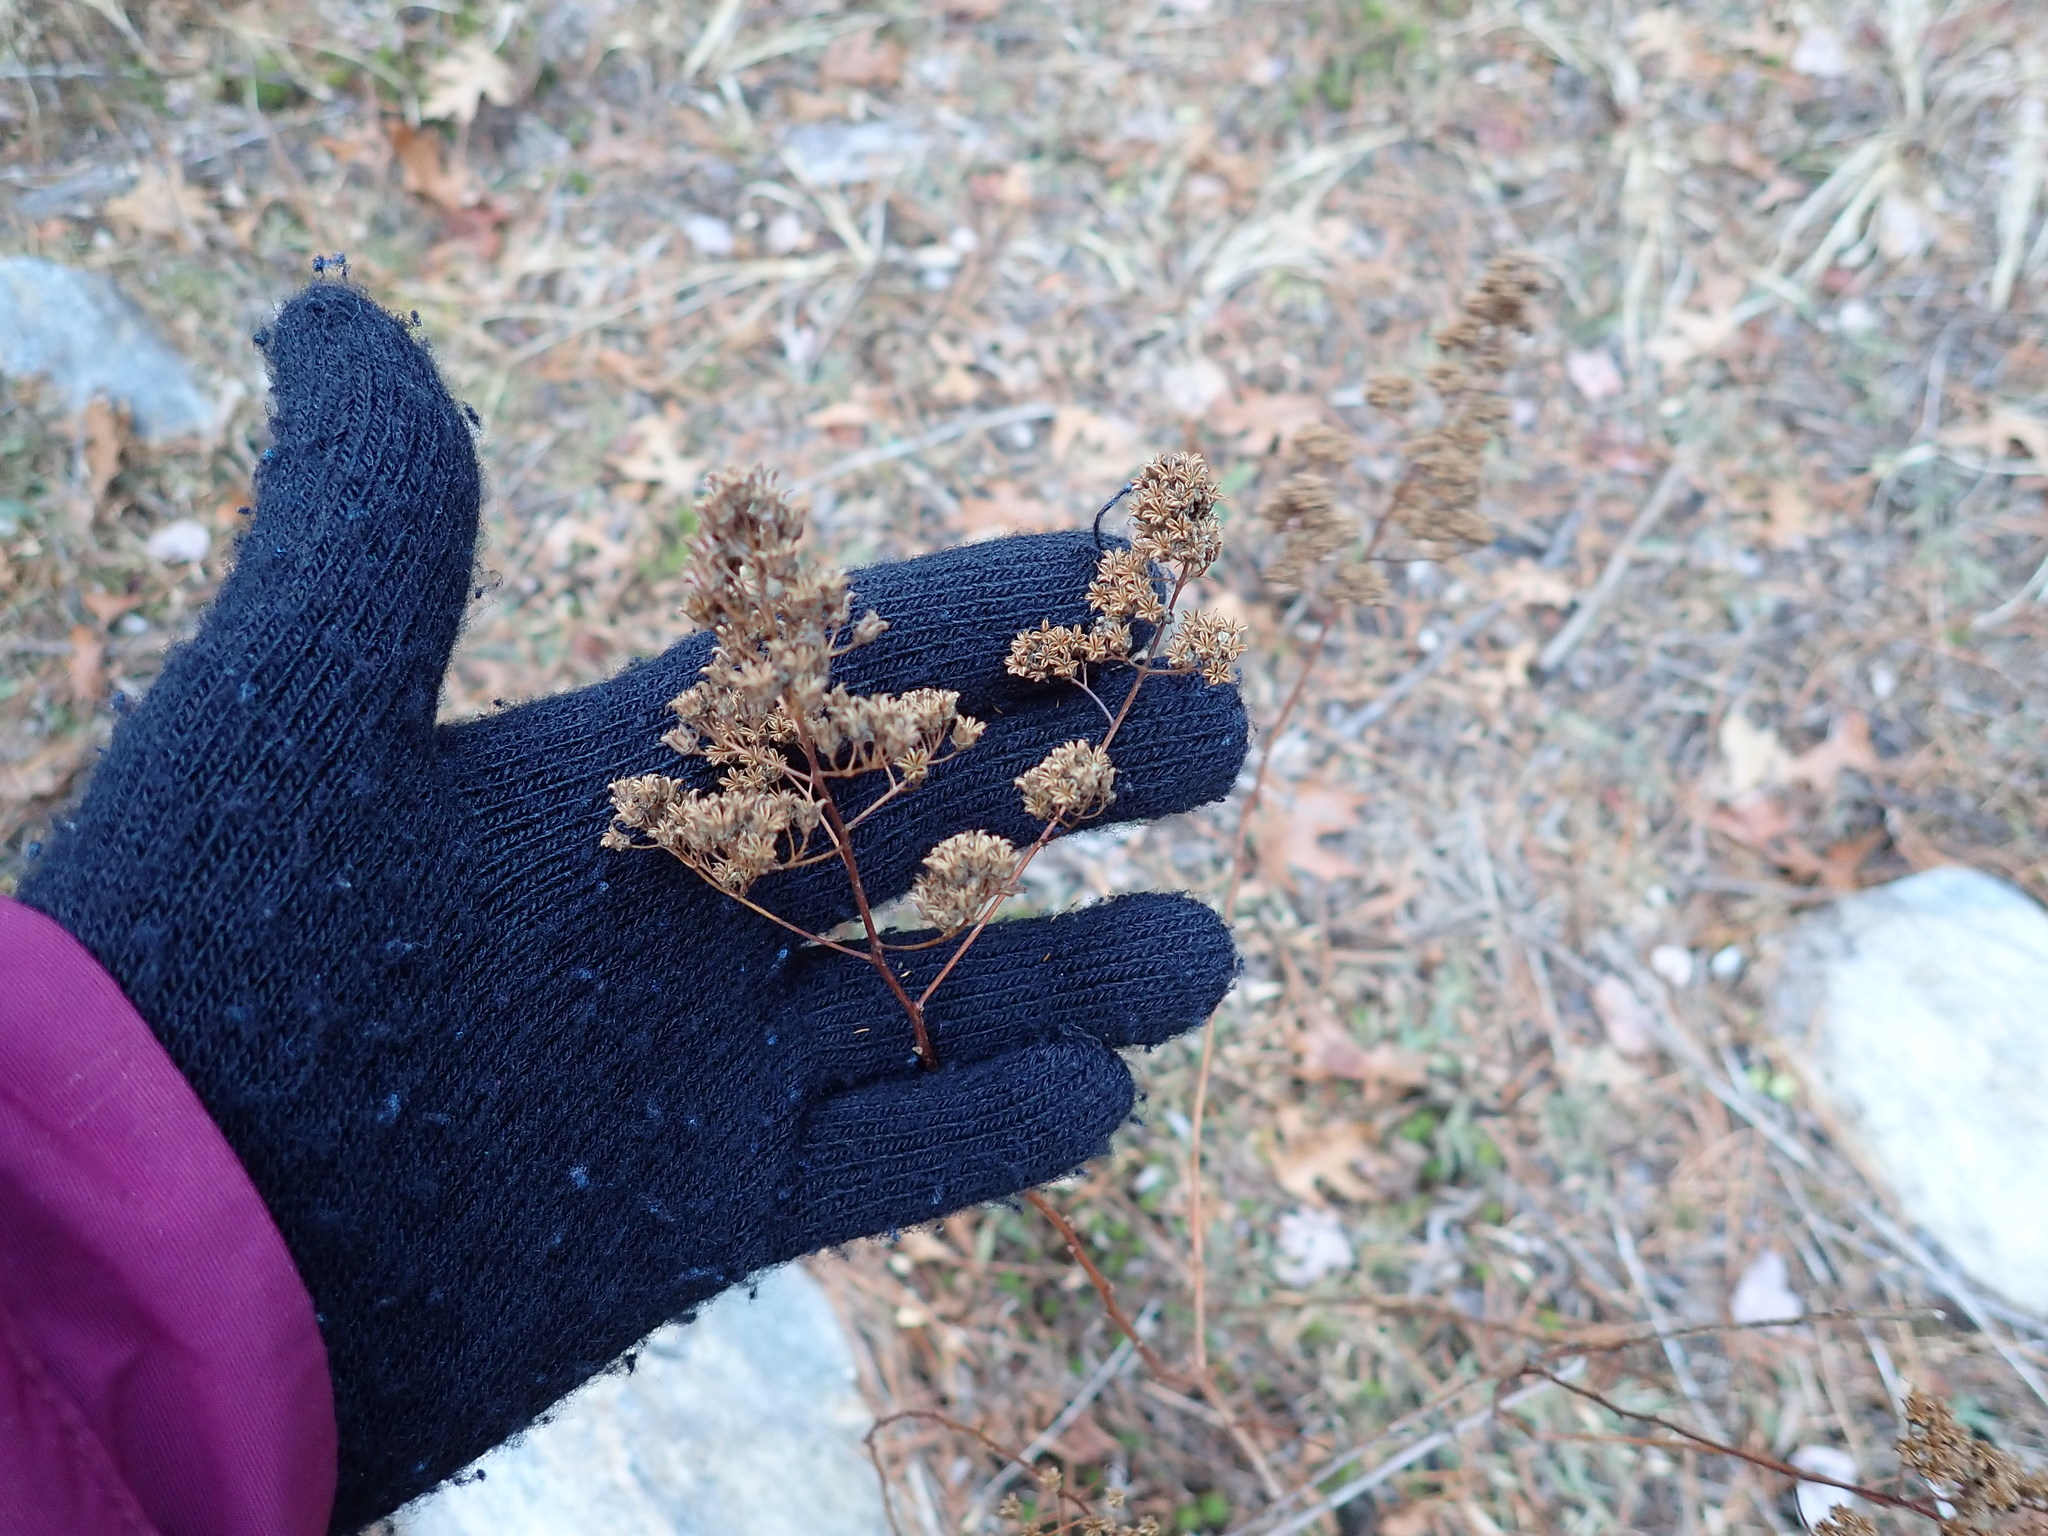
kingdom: Plantae
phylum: Tracheophyta
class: Magnoliopsida
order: Rosales
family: Rosaceae
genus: Spiraea
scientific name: Spiraea alba
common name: Pale bridewort
